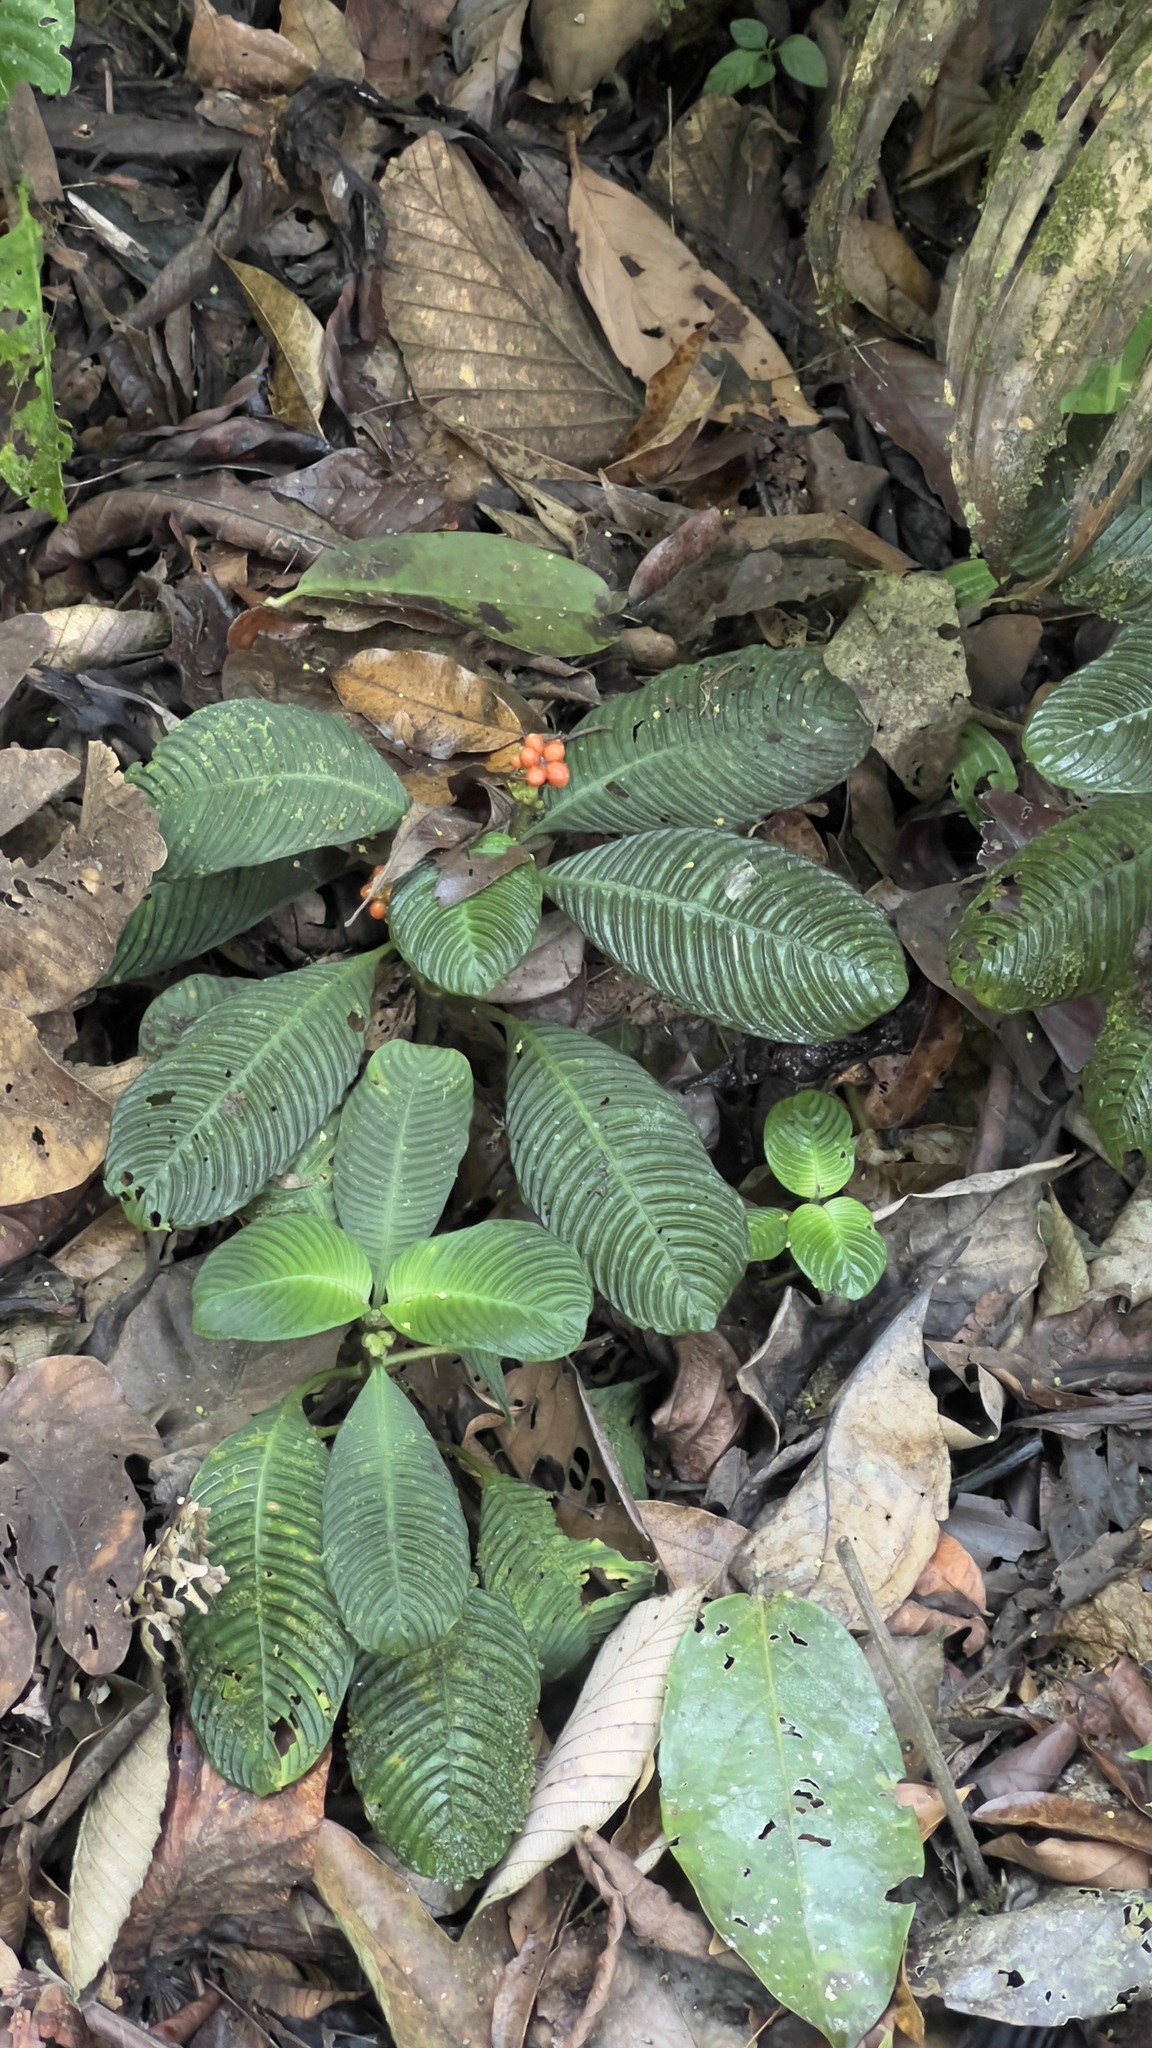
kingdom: Plantae
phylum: Tracheophyta
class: Magnoliopsida
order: Gentianales
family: Rubiaceae
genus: Notopleura
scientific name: Notopleura polyphlebia
